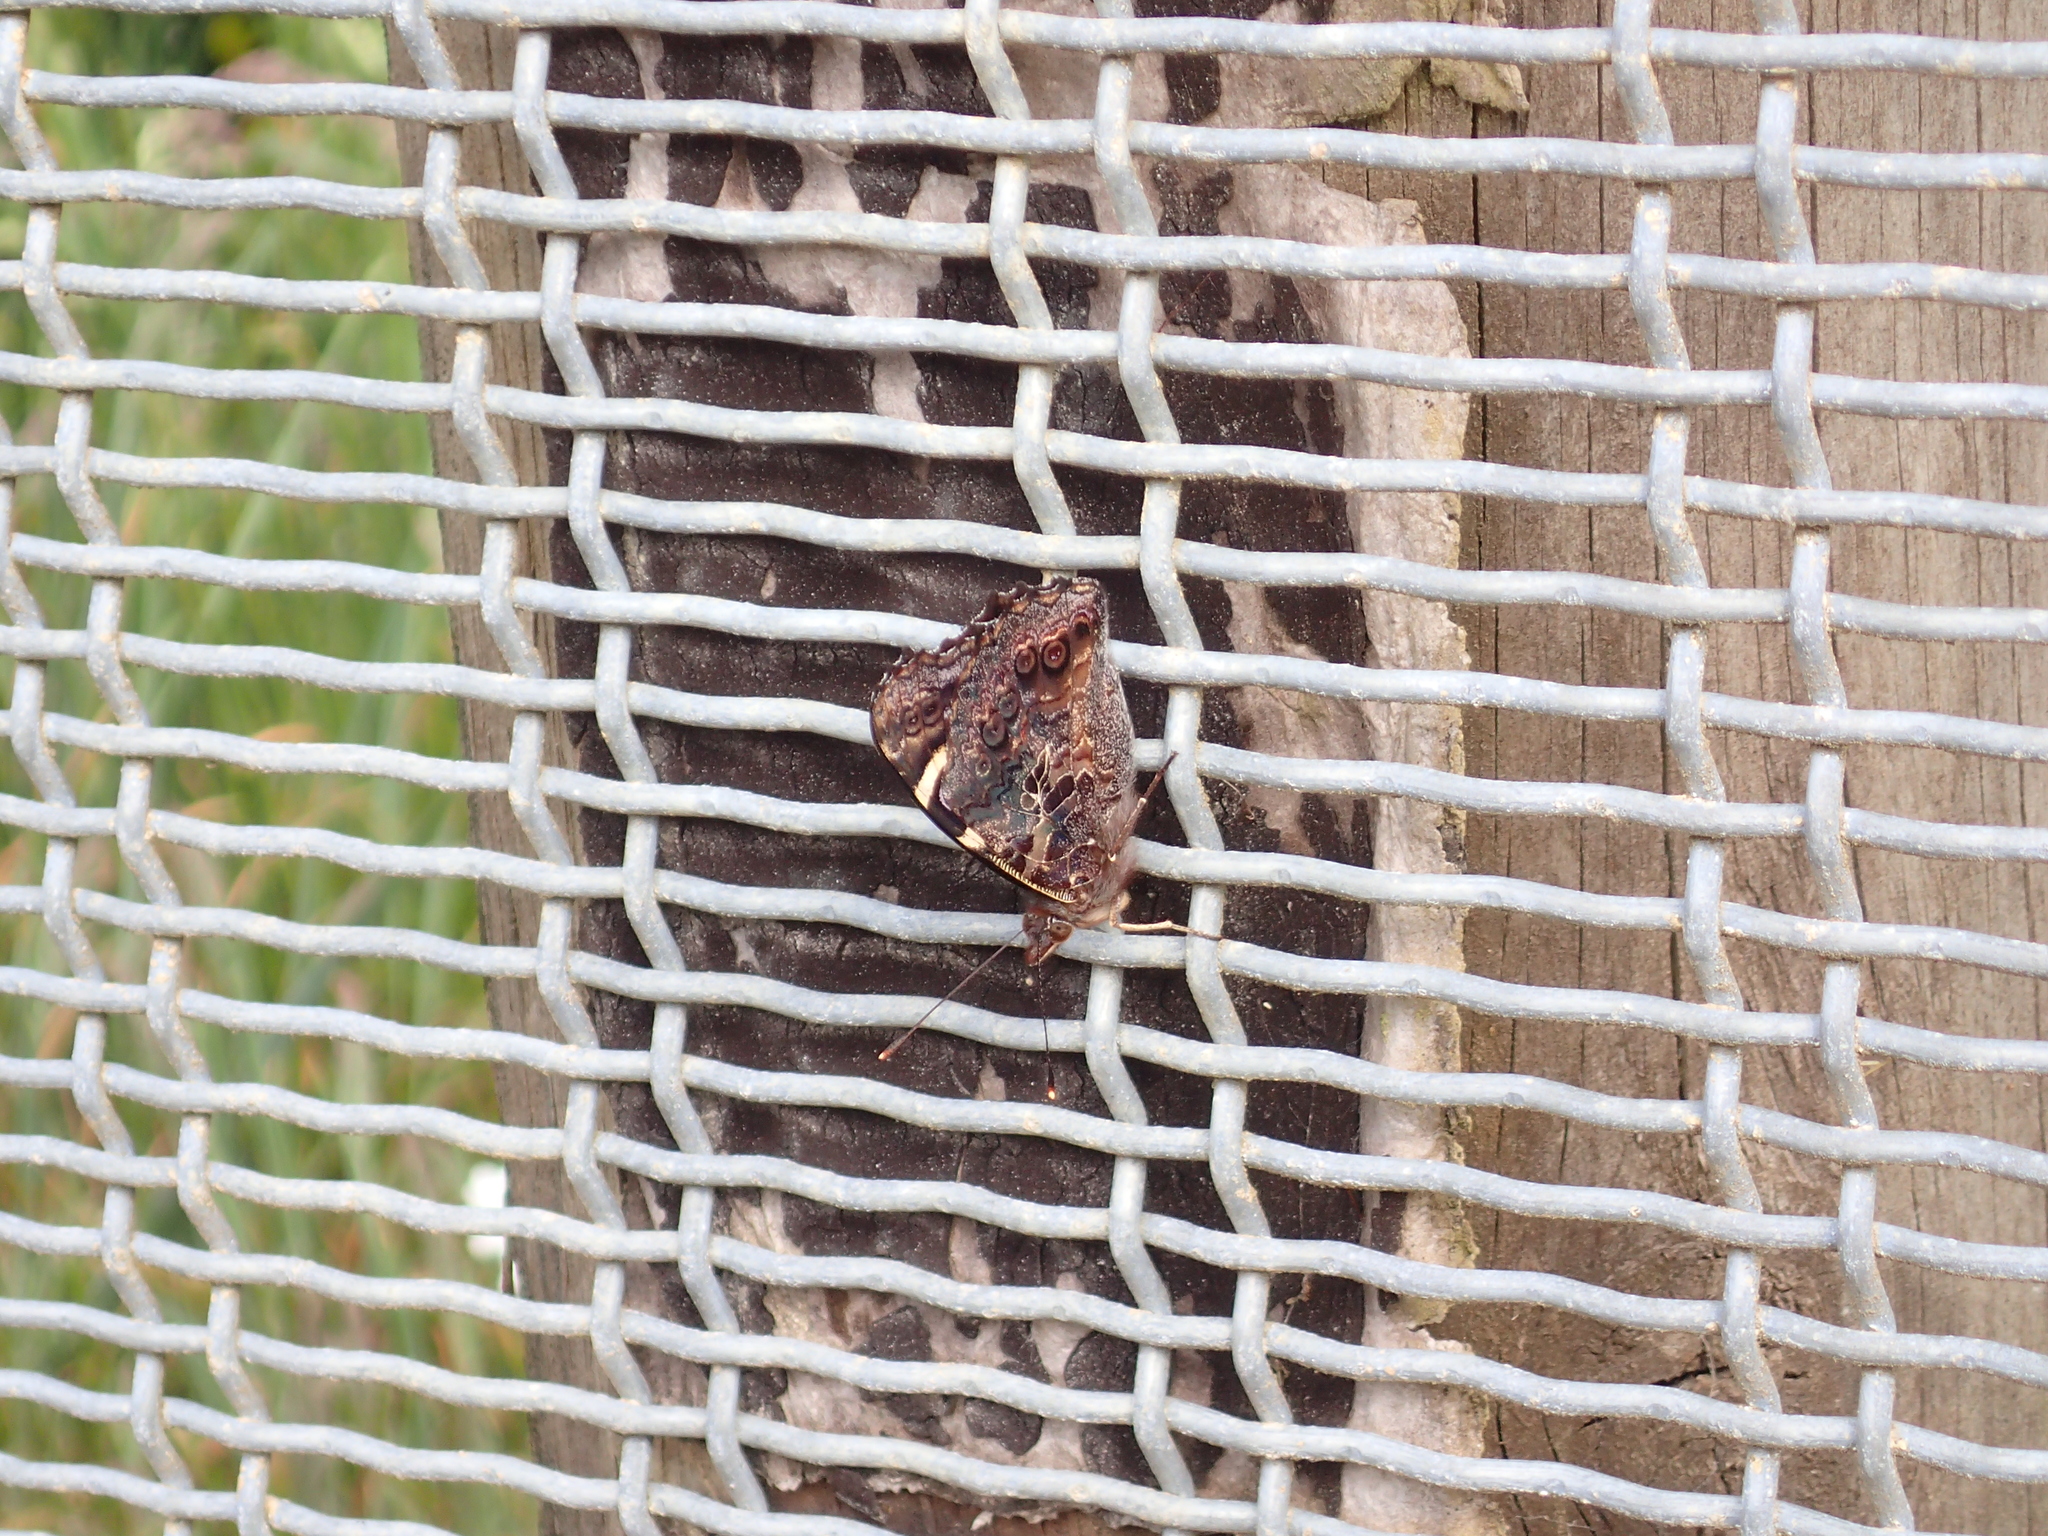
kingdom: Animalia
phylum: Arthropoda
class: Insecta
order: Lepidoptera
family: Nymphalidae
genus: Vanessa
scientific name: Vanessa gonerilla
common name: New zealand red admiral
